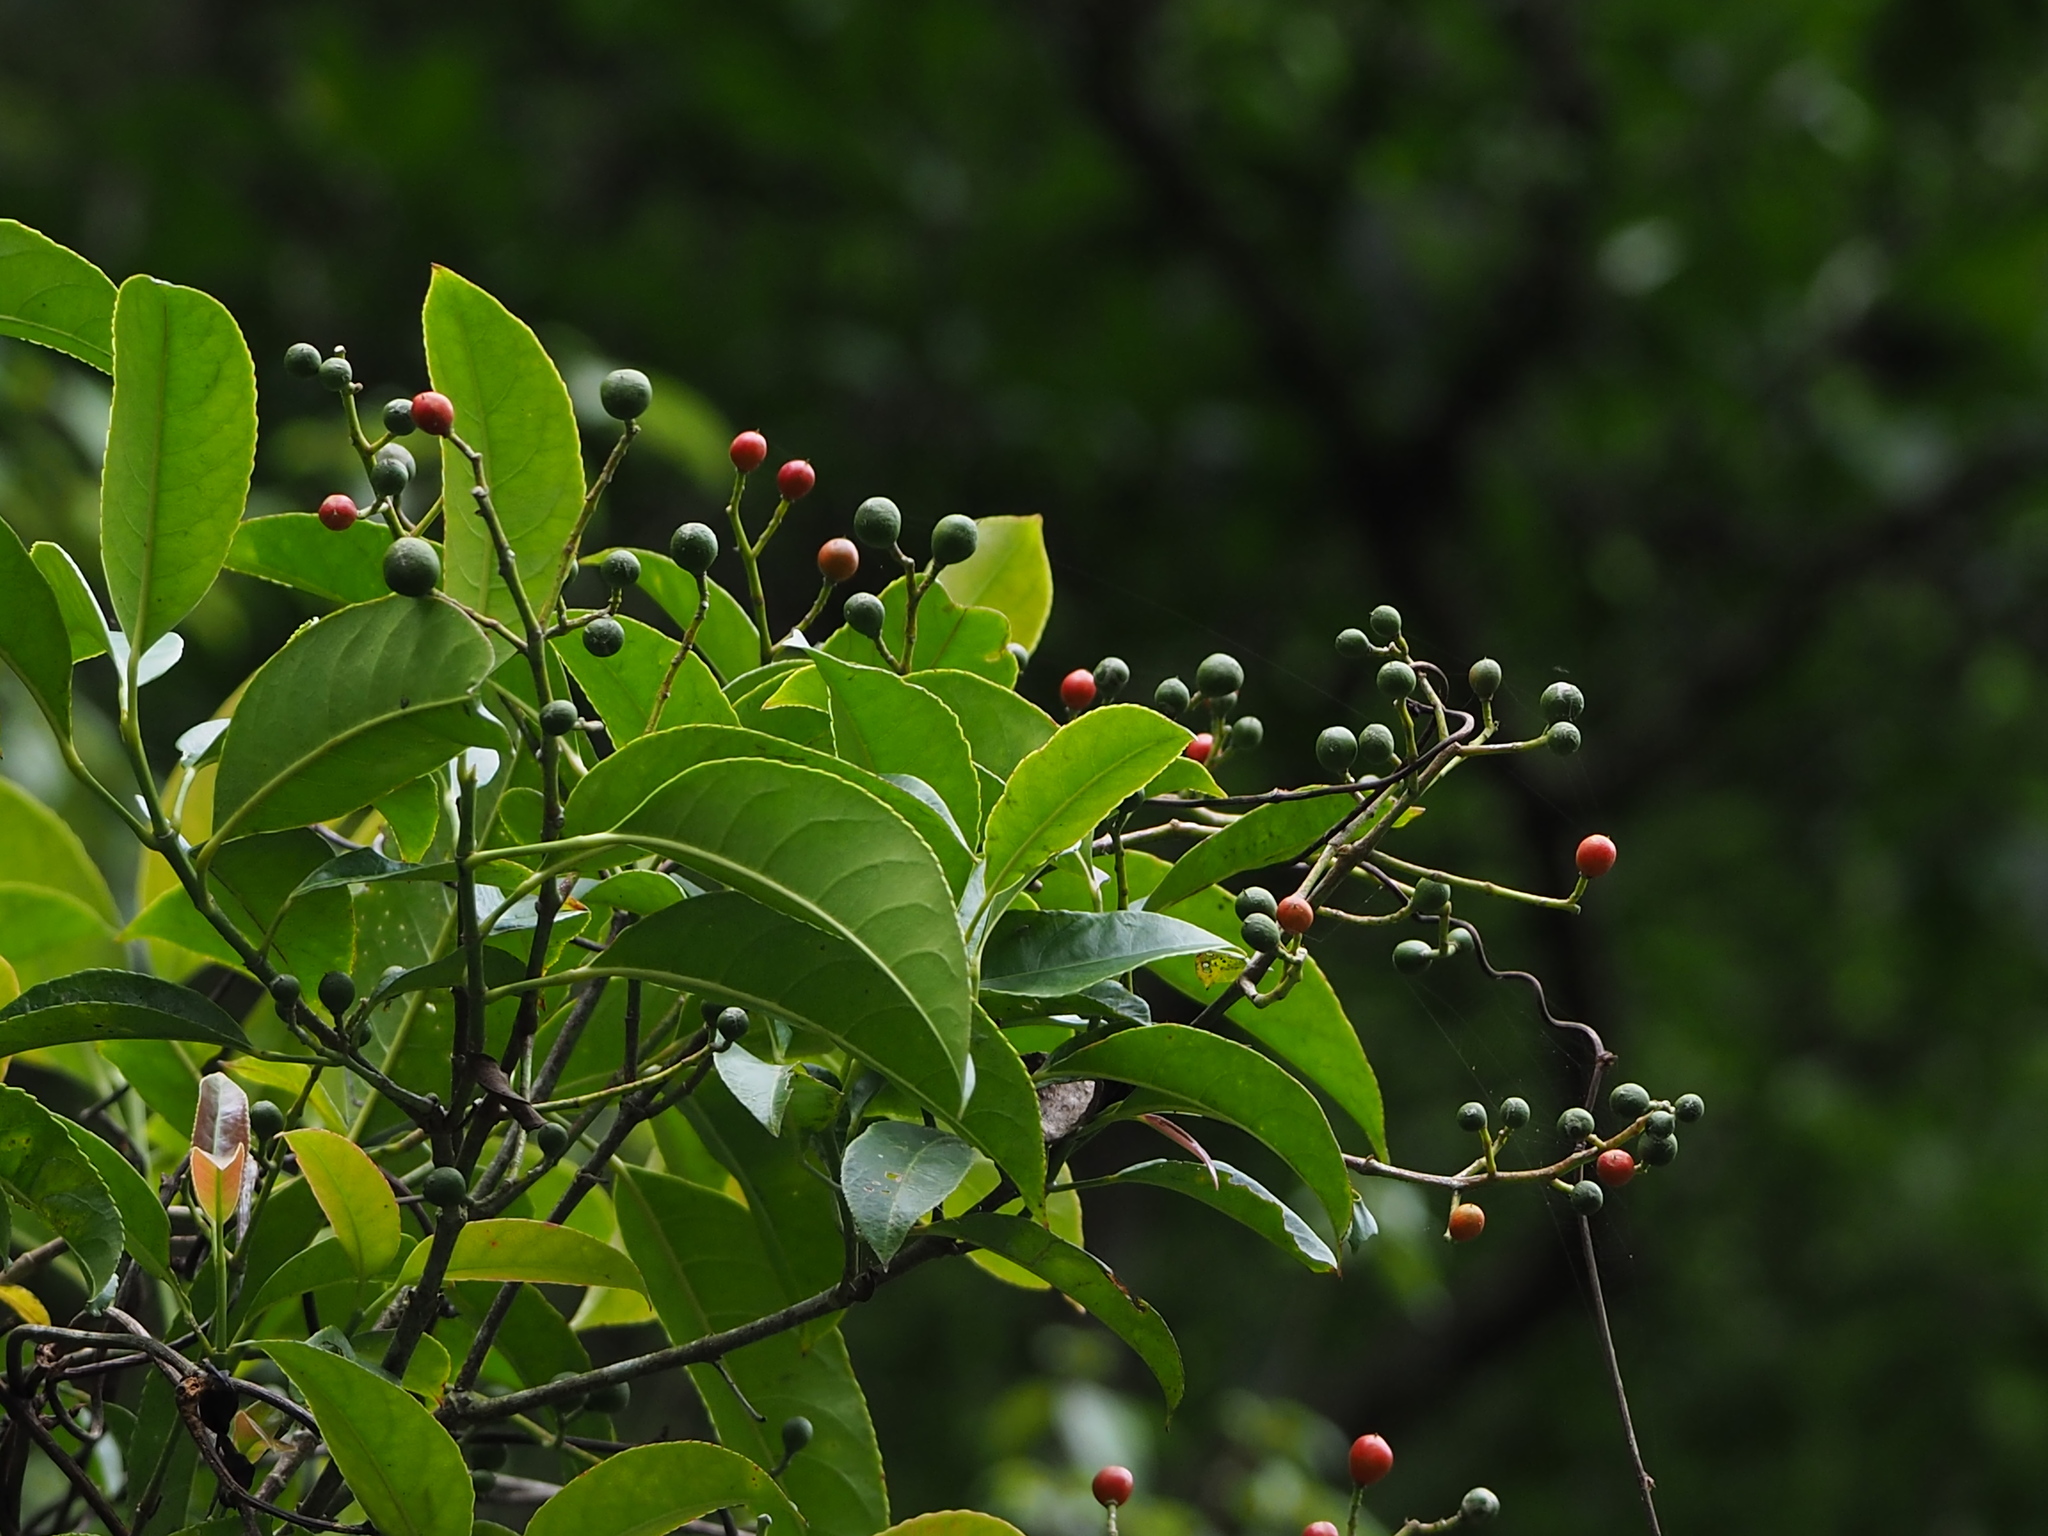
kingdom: Plantae
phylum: Tracheophyta
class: Magnoliopsida
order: Crossosomatales
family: Staphyleaceae
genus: Turpinia
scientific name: Turpinia formosana
